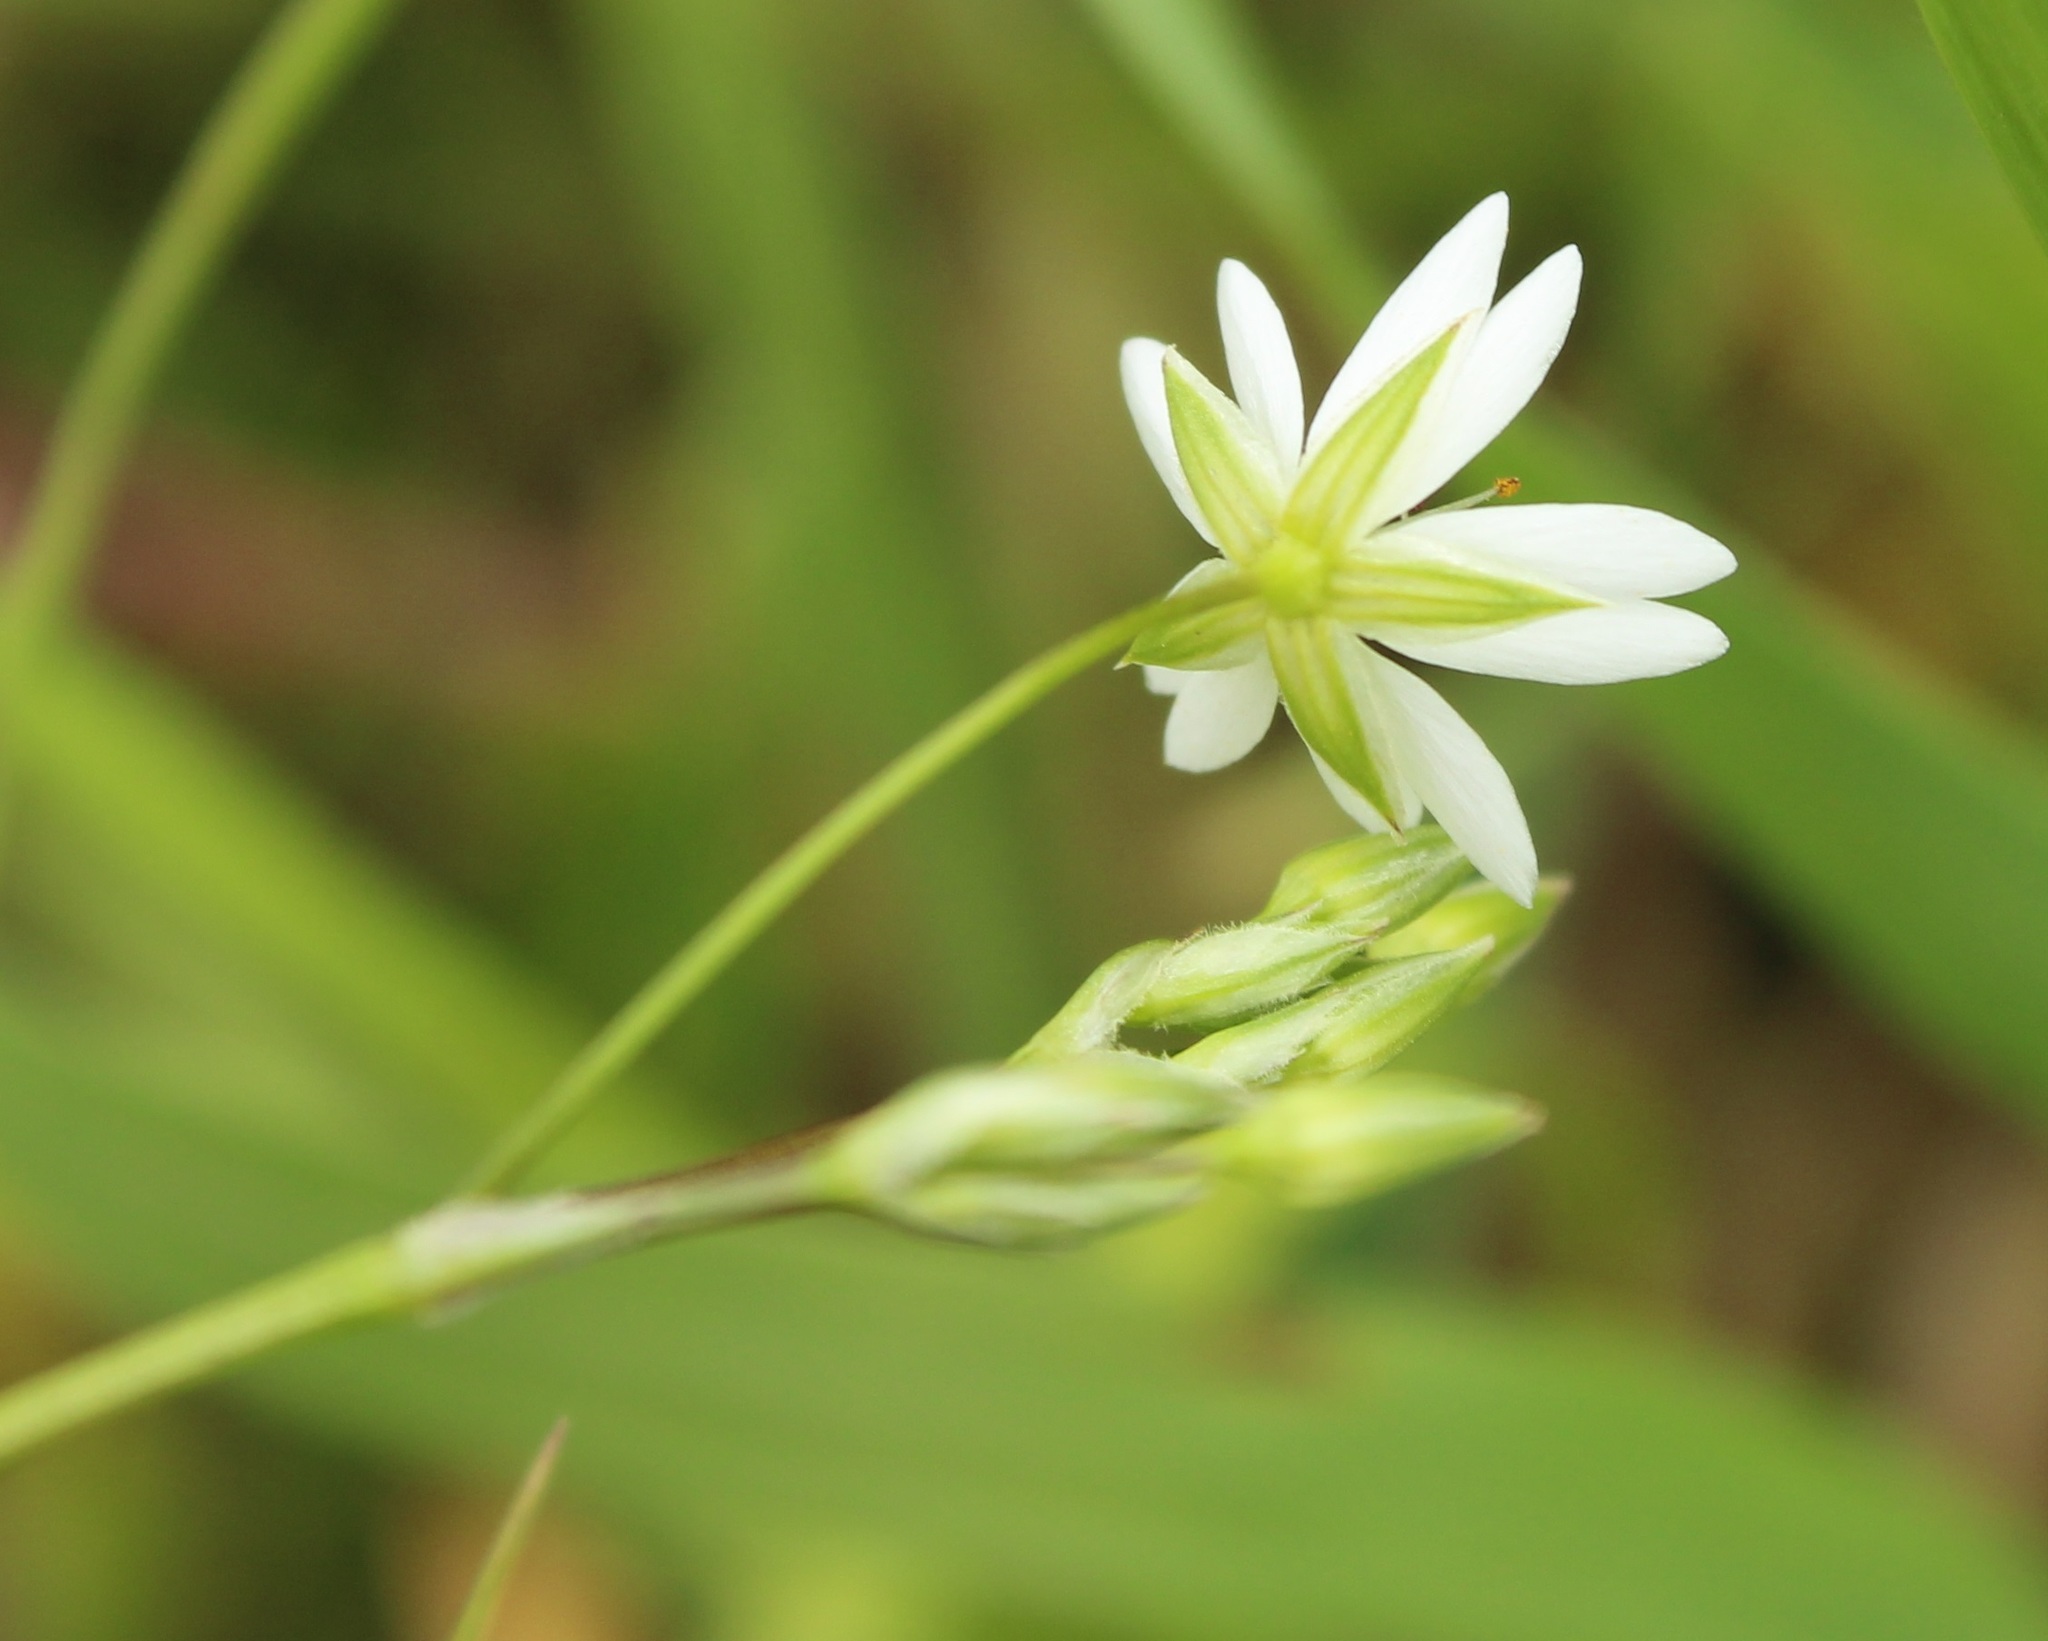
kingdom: Plantae
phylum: Tracheophyta
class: Magnoliopsida
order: Caryophyllales
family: Caryophyllaceae
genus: Stellaria
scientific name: Stellaria graminea
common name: Grass-like starwort
